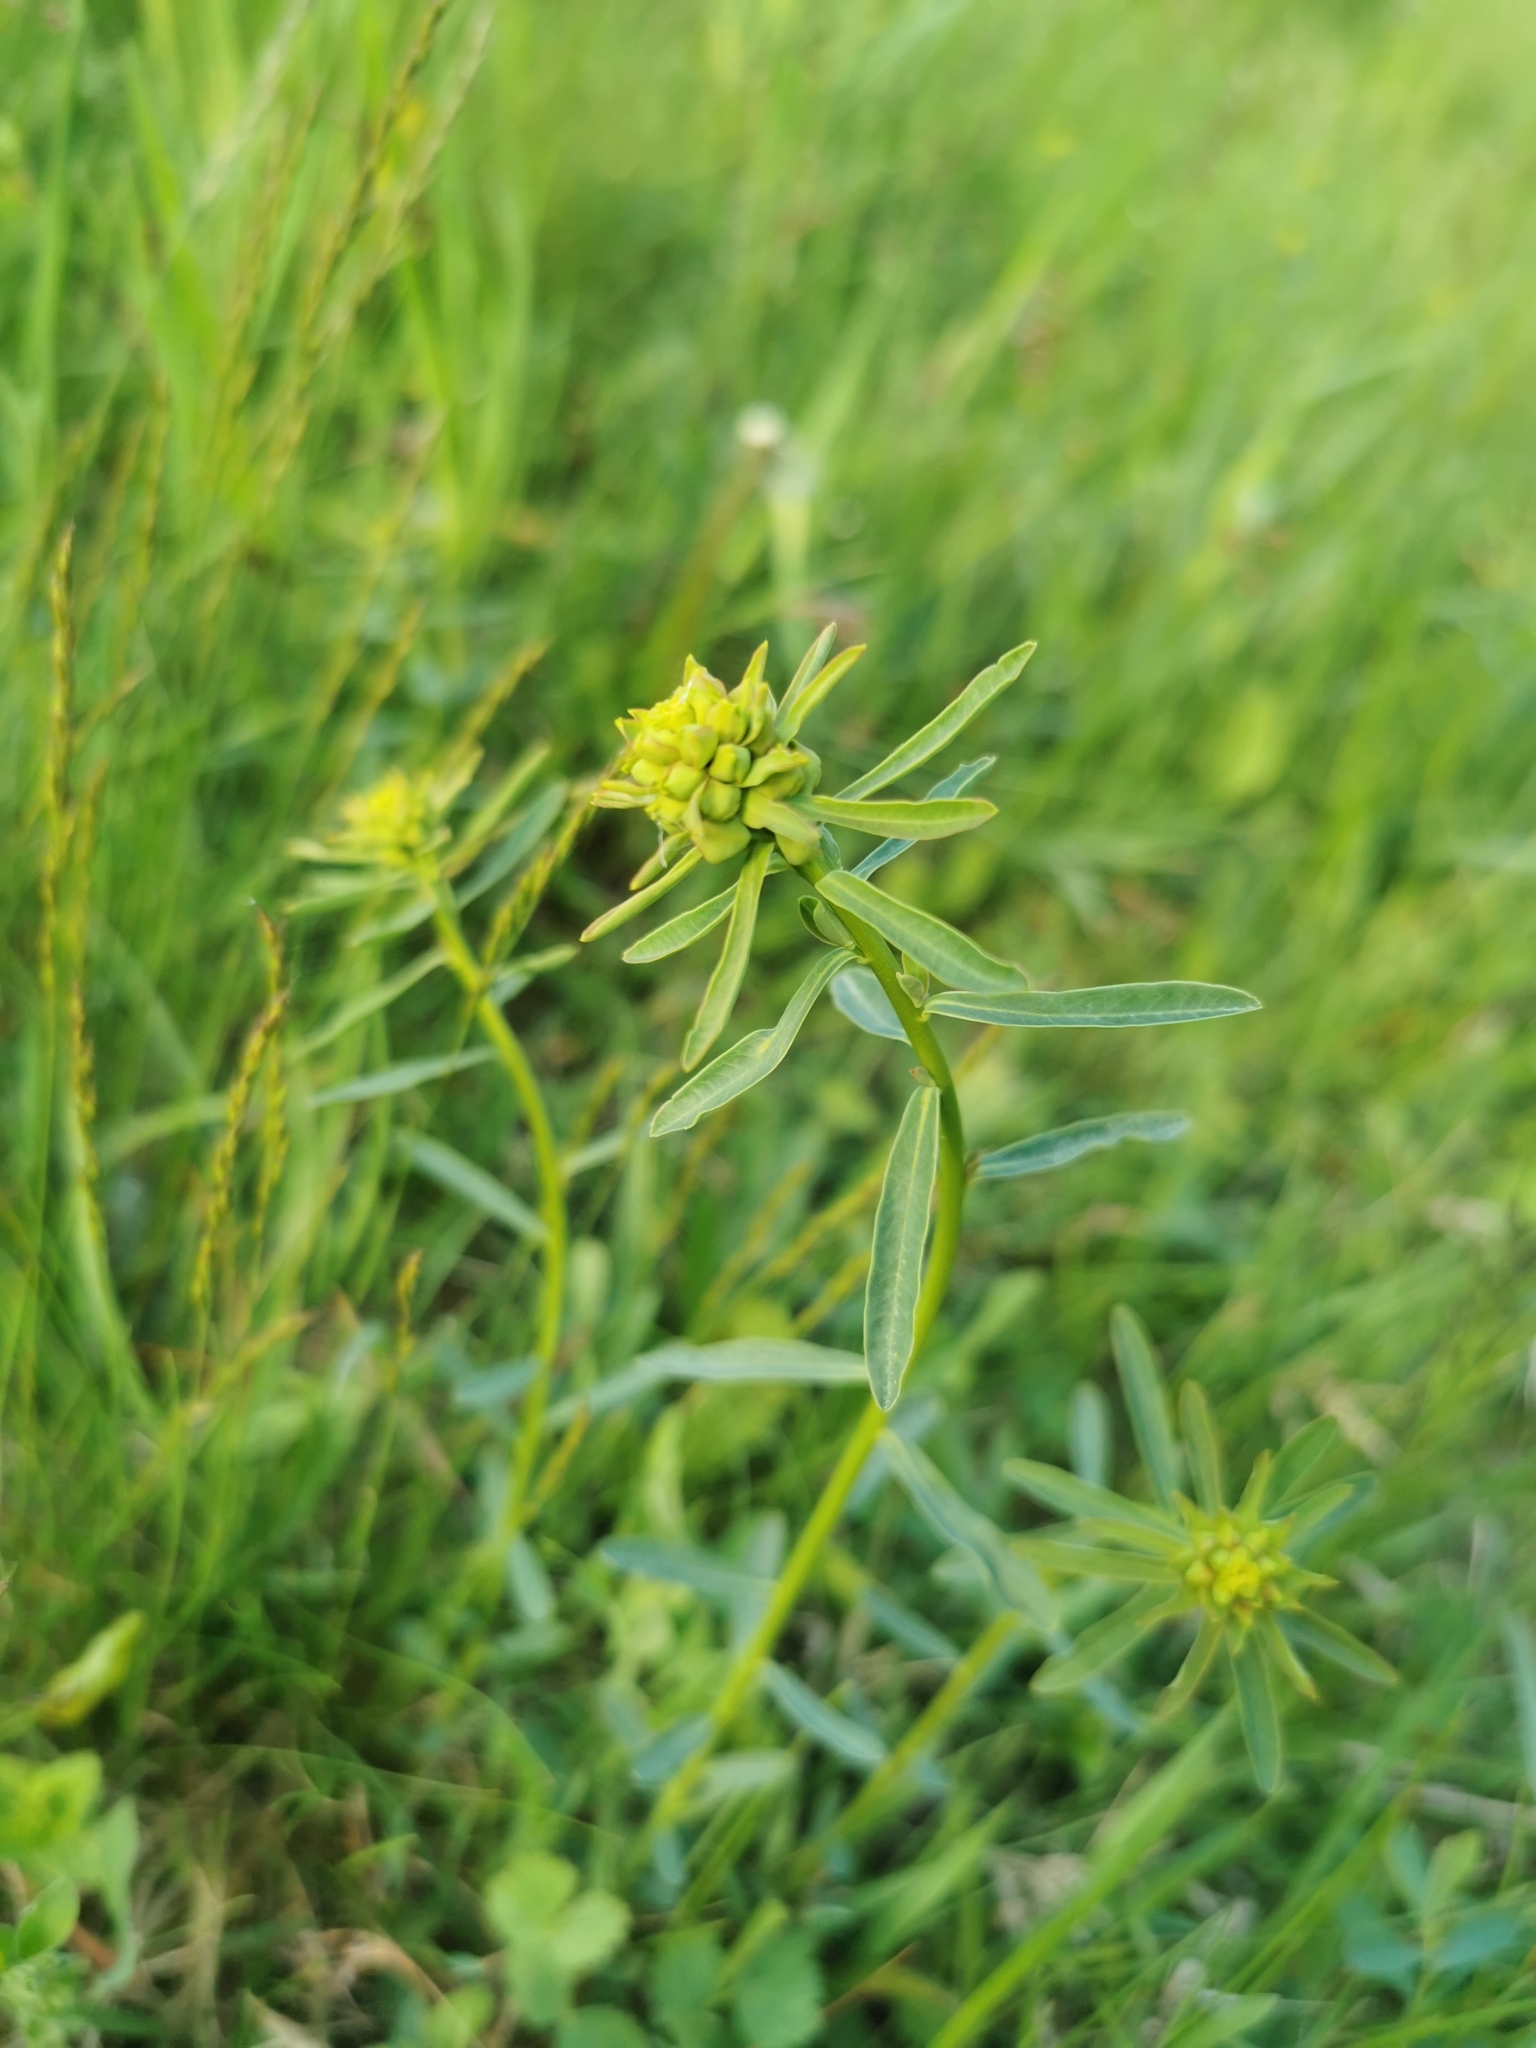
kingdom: Plantae
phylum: Tracheophyta
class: Magnoliopsida
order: Malpighiales
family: Euphorbiaceae
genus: Euphorbia
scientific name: Euphorbia esula
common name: Leafy spurge
